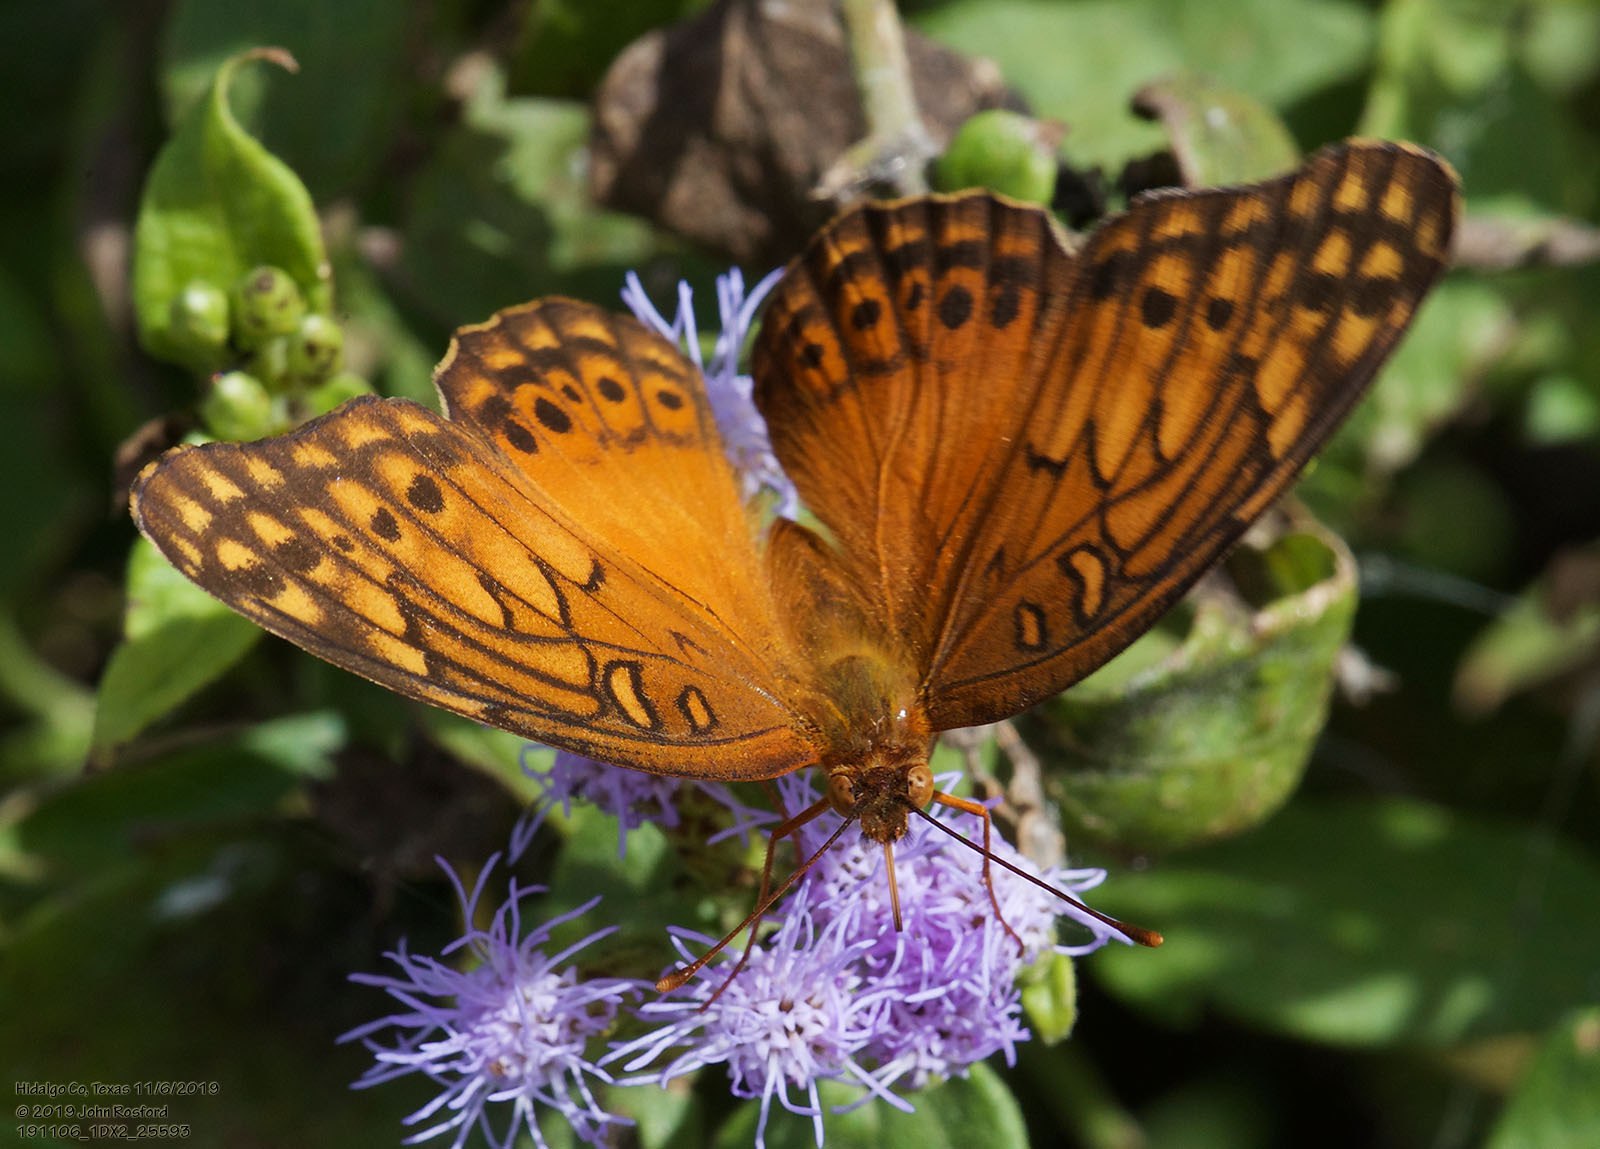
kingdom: Animalia
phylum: Arthropoda
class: Insecta
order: Lepidoptera
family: Nymphalidae
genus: Euptoieta
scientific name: Euptoieta hegesia
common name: Mexican fritillary
